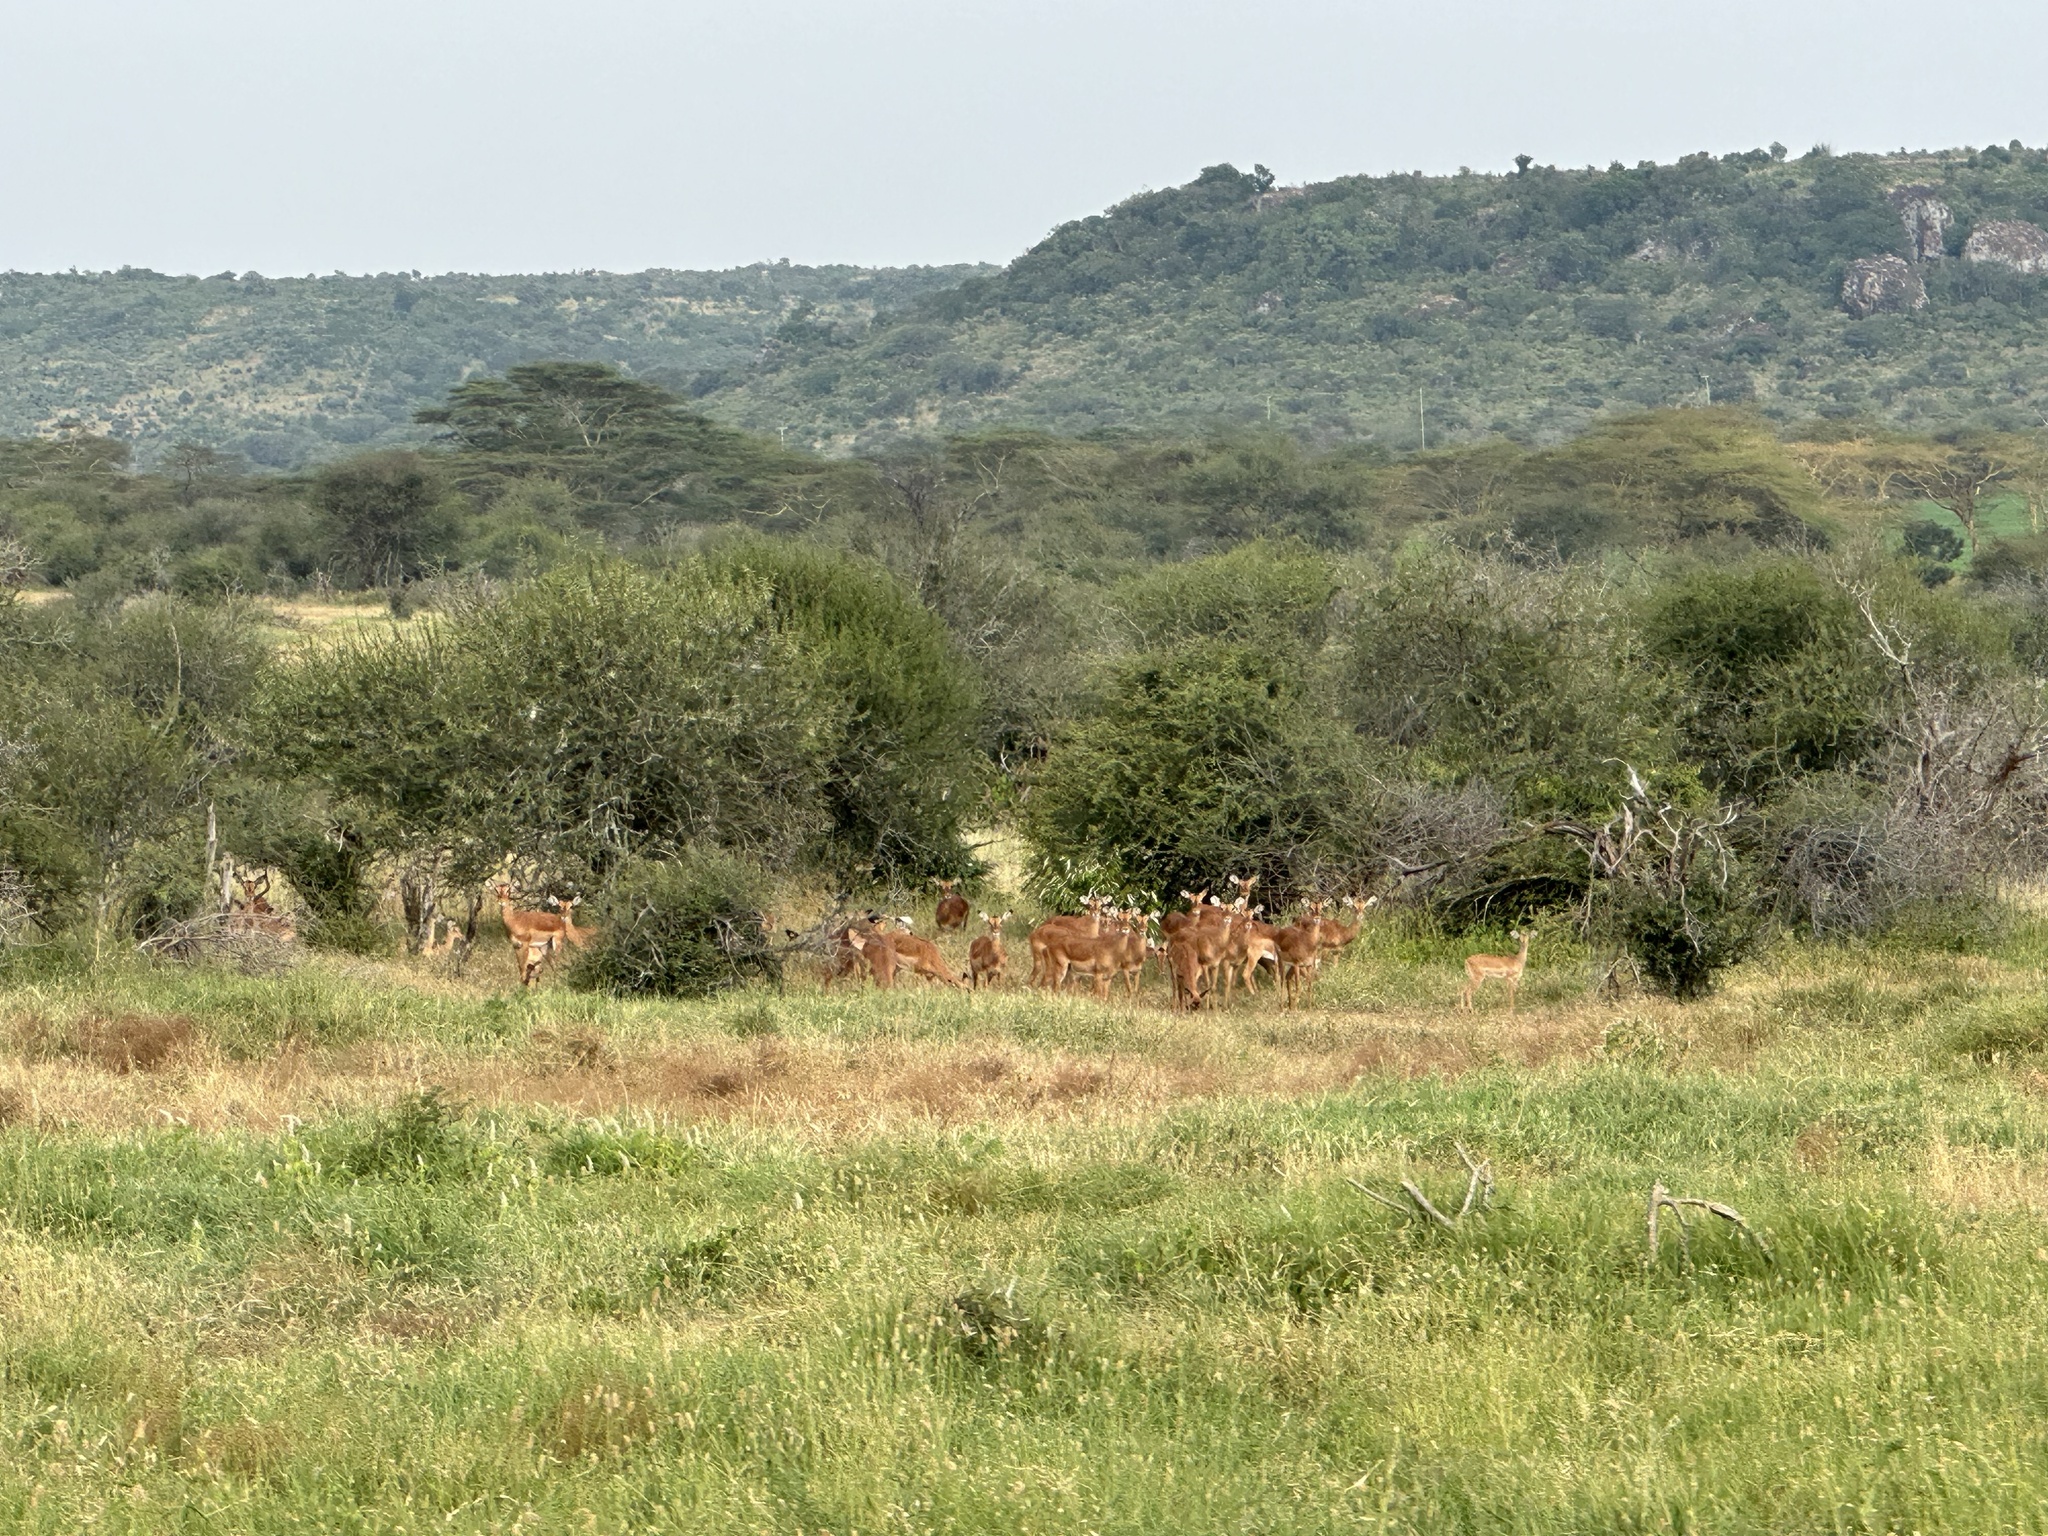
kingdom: Animalia
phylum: Chordata
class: Mammalia
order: Artiodactyla
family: Bovidae
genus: Aepyceros
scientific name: Aepyceros melampus
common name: Impala
